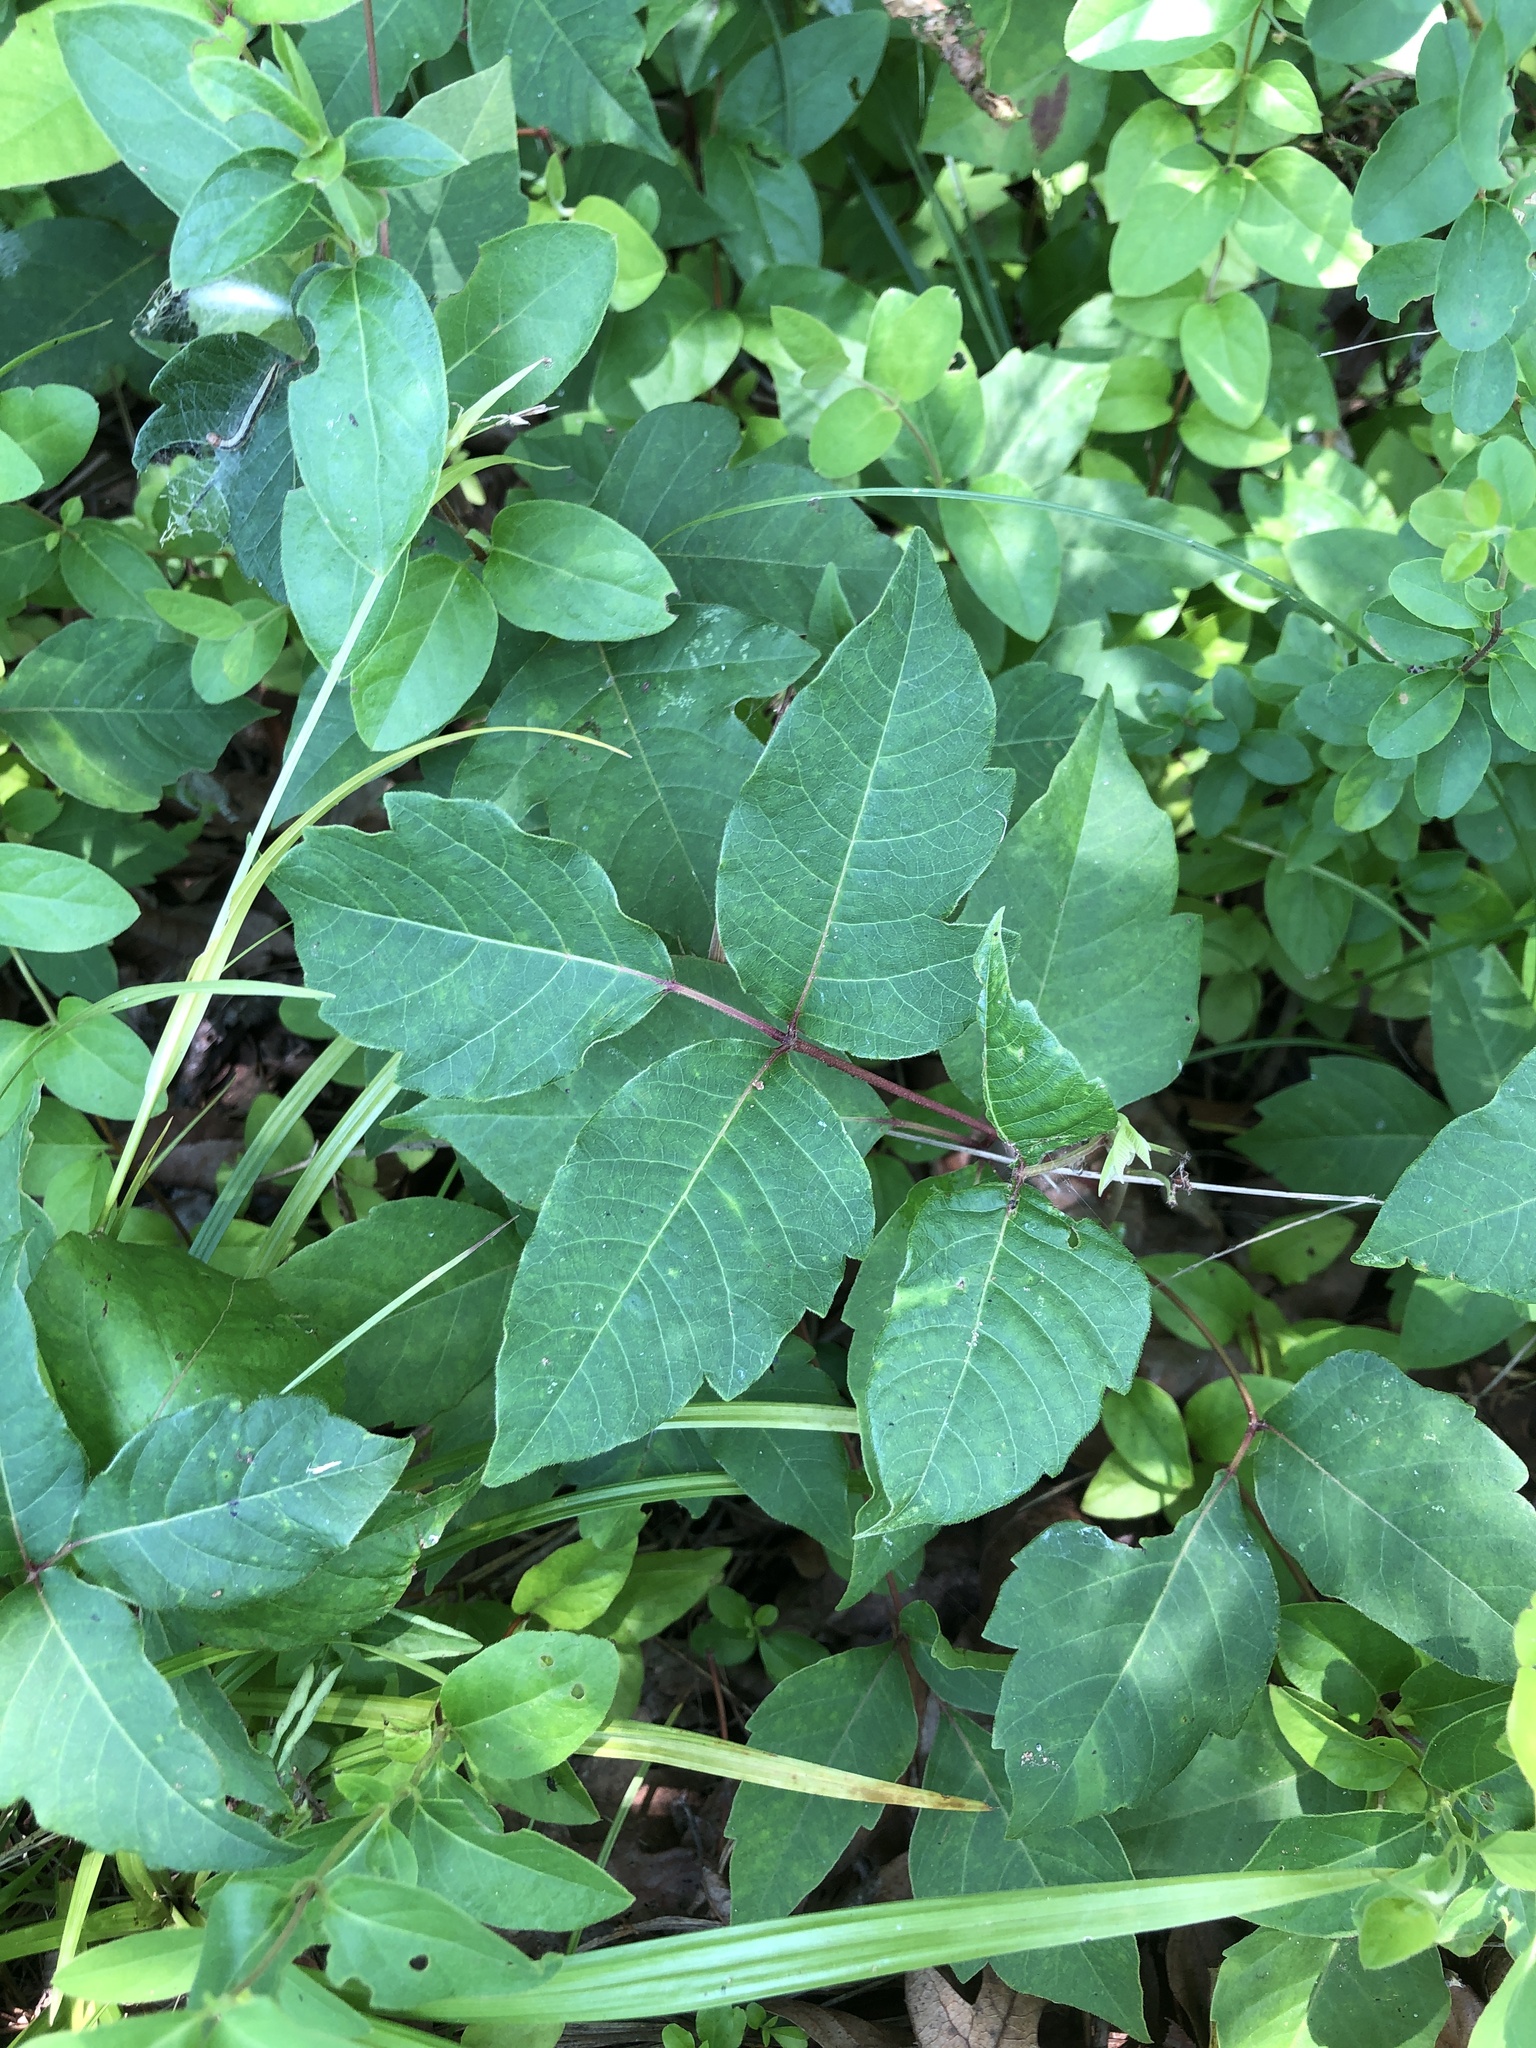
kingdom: Plantae
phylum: Tracheophyta
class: Magnoliopsida
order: Sapindales
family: Anacardiaceae
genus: Toxicodendron
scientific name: Toxicodendron radicans
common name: Poison ivy
